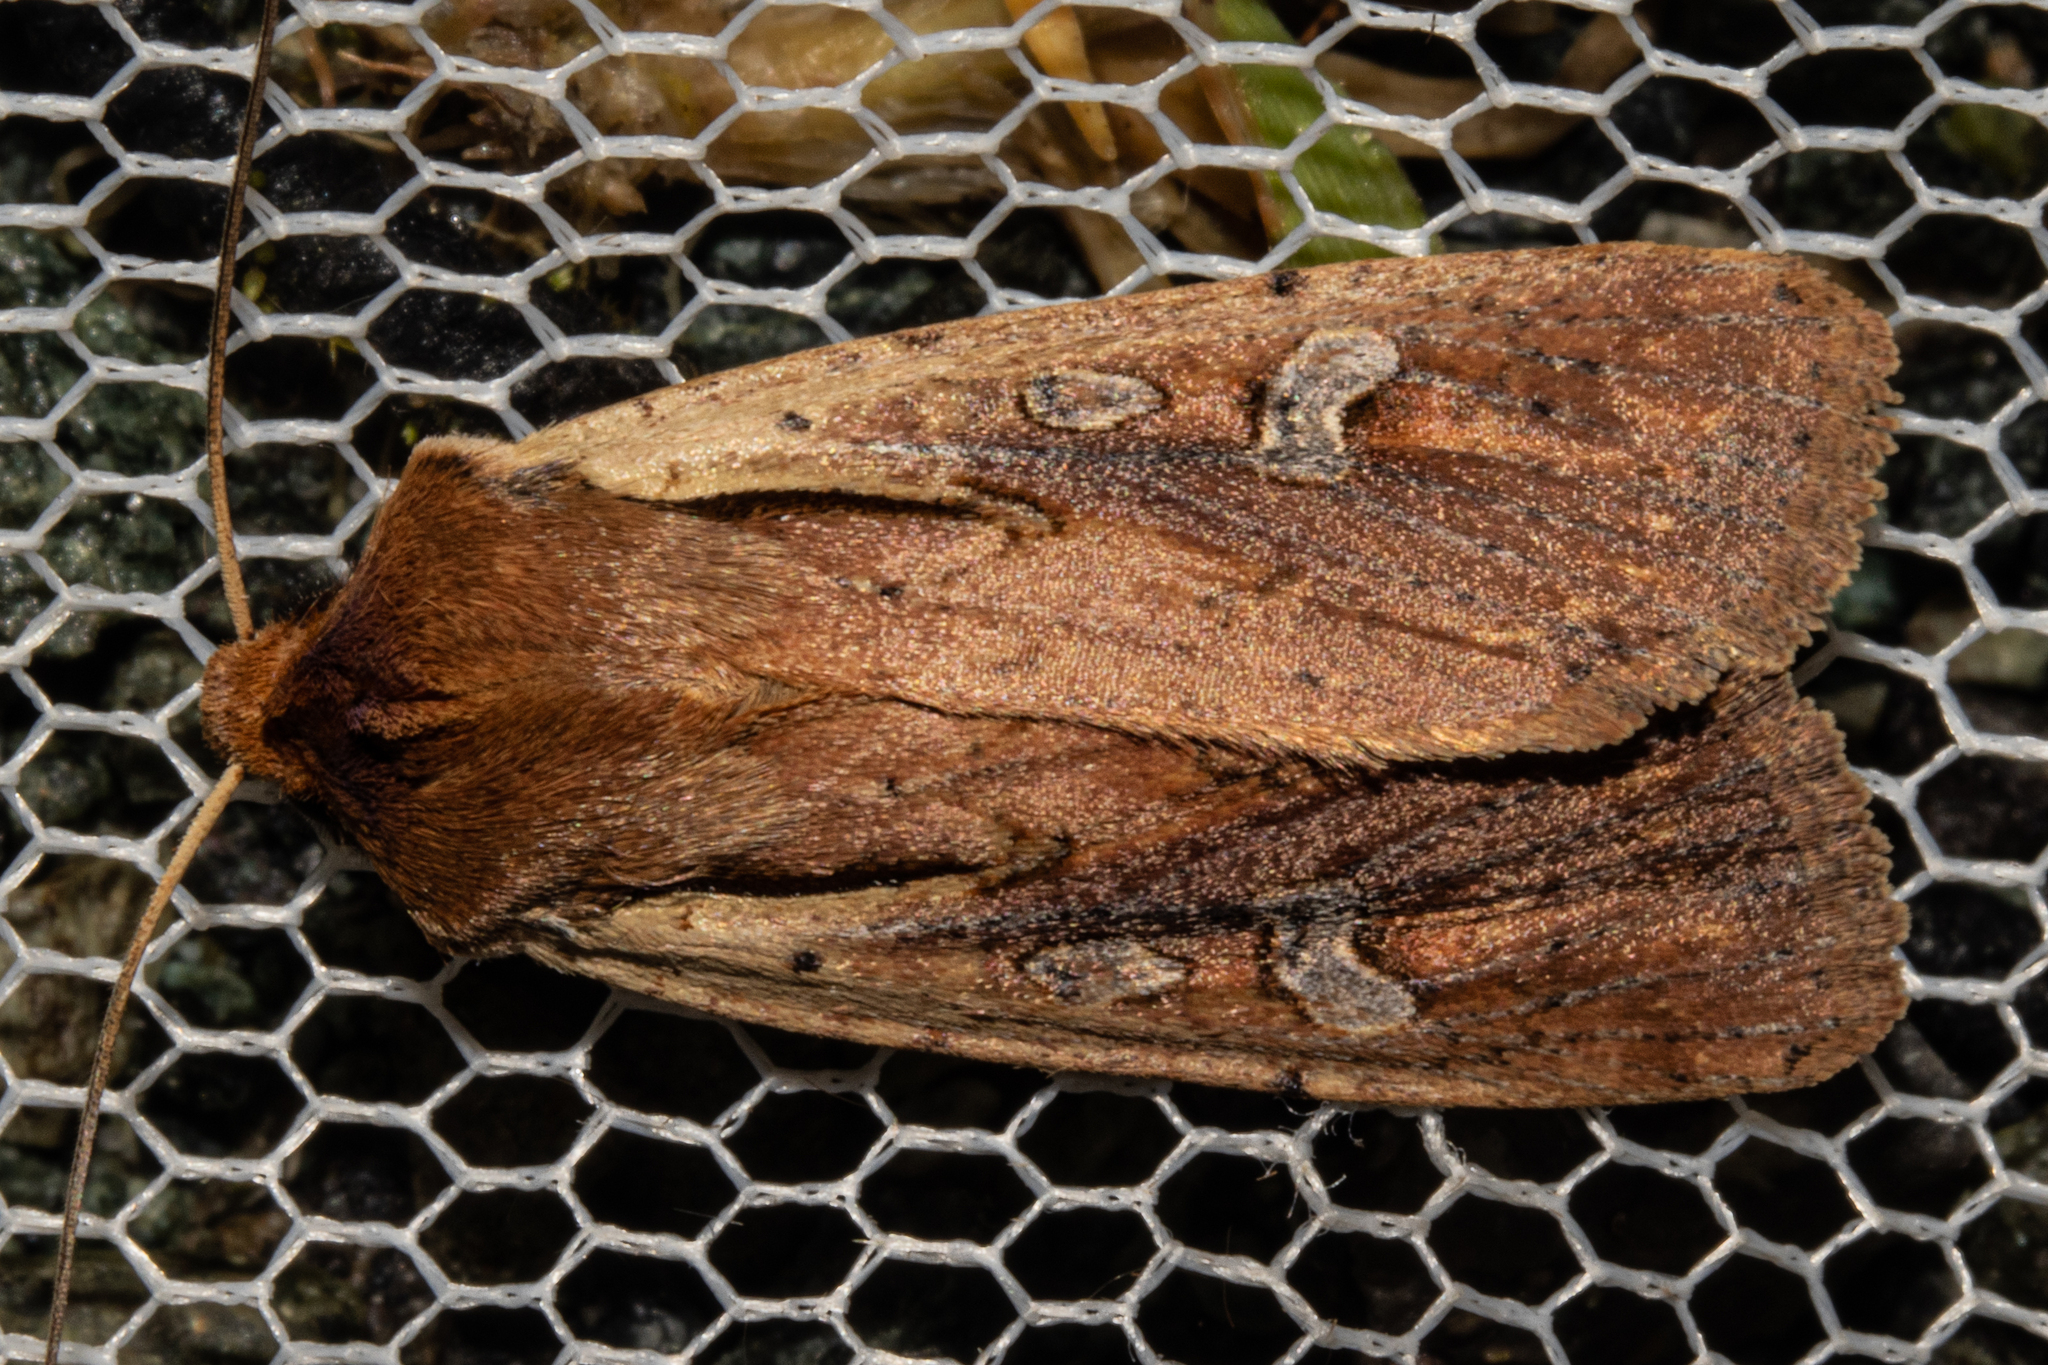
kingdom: Animalia
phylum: Arthropoda
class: Insecta
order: Lepidoptera
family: Noctuidae
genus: Ichneutica
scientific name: Ichneutica atristriga
